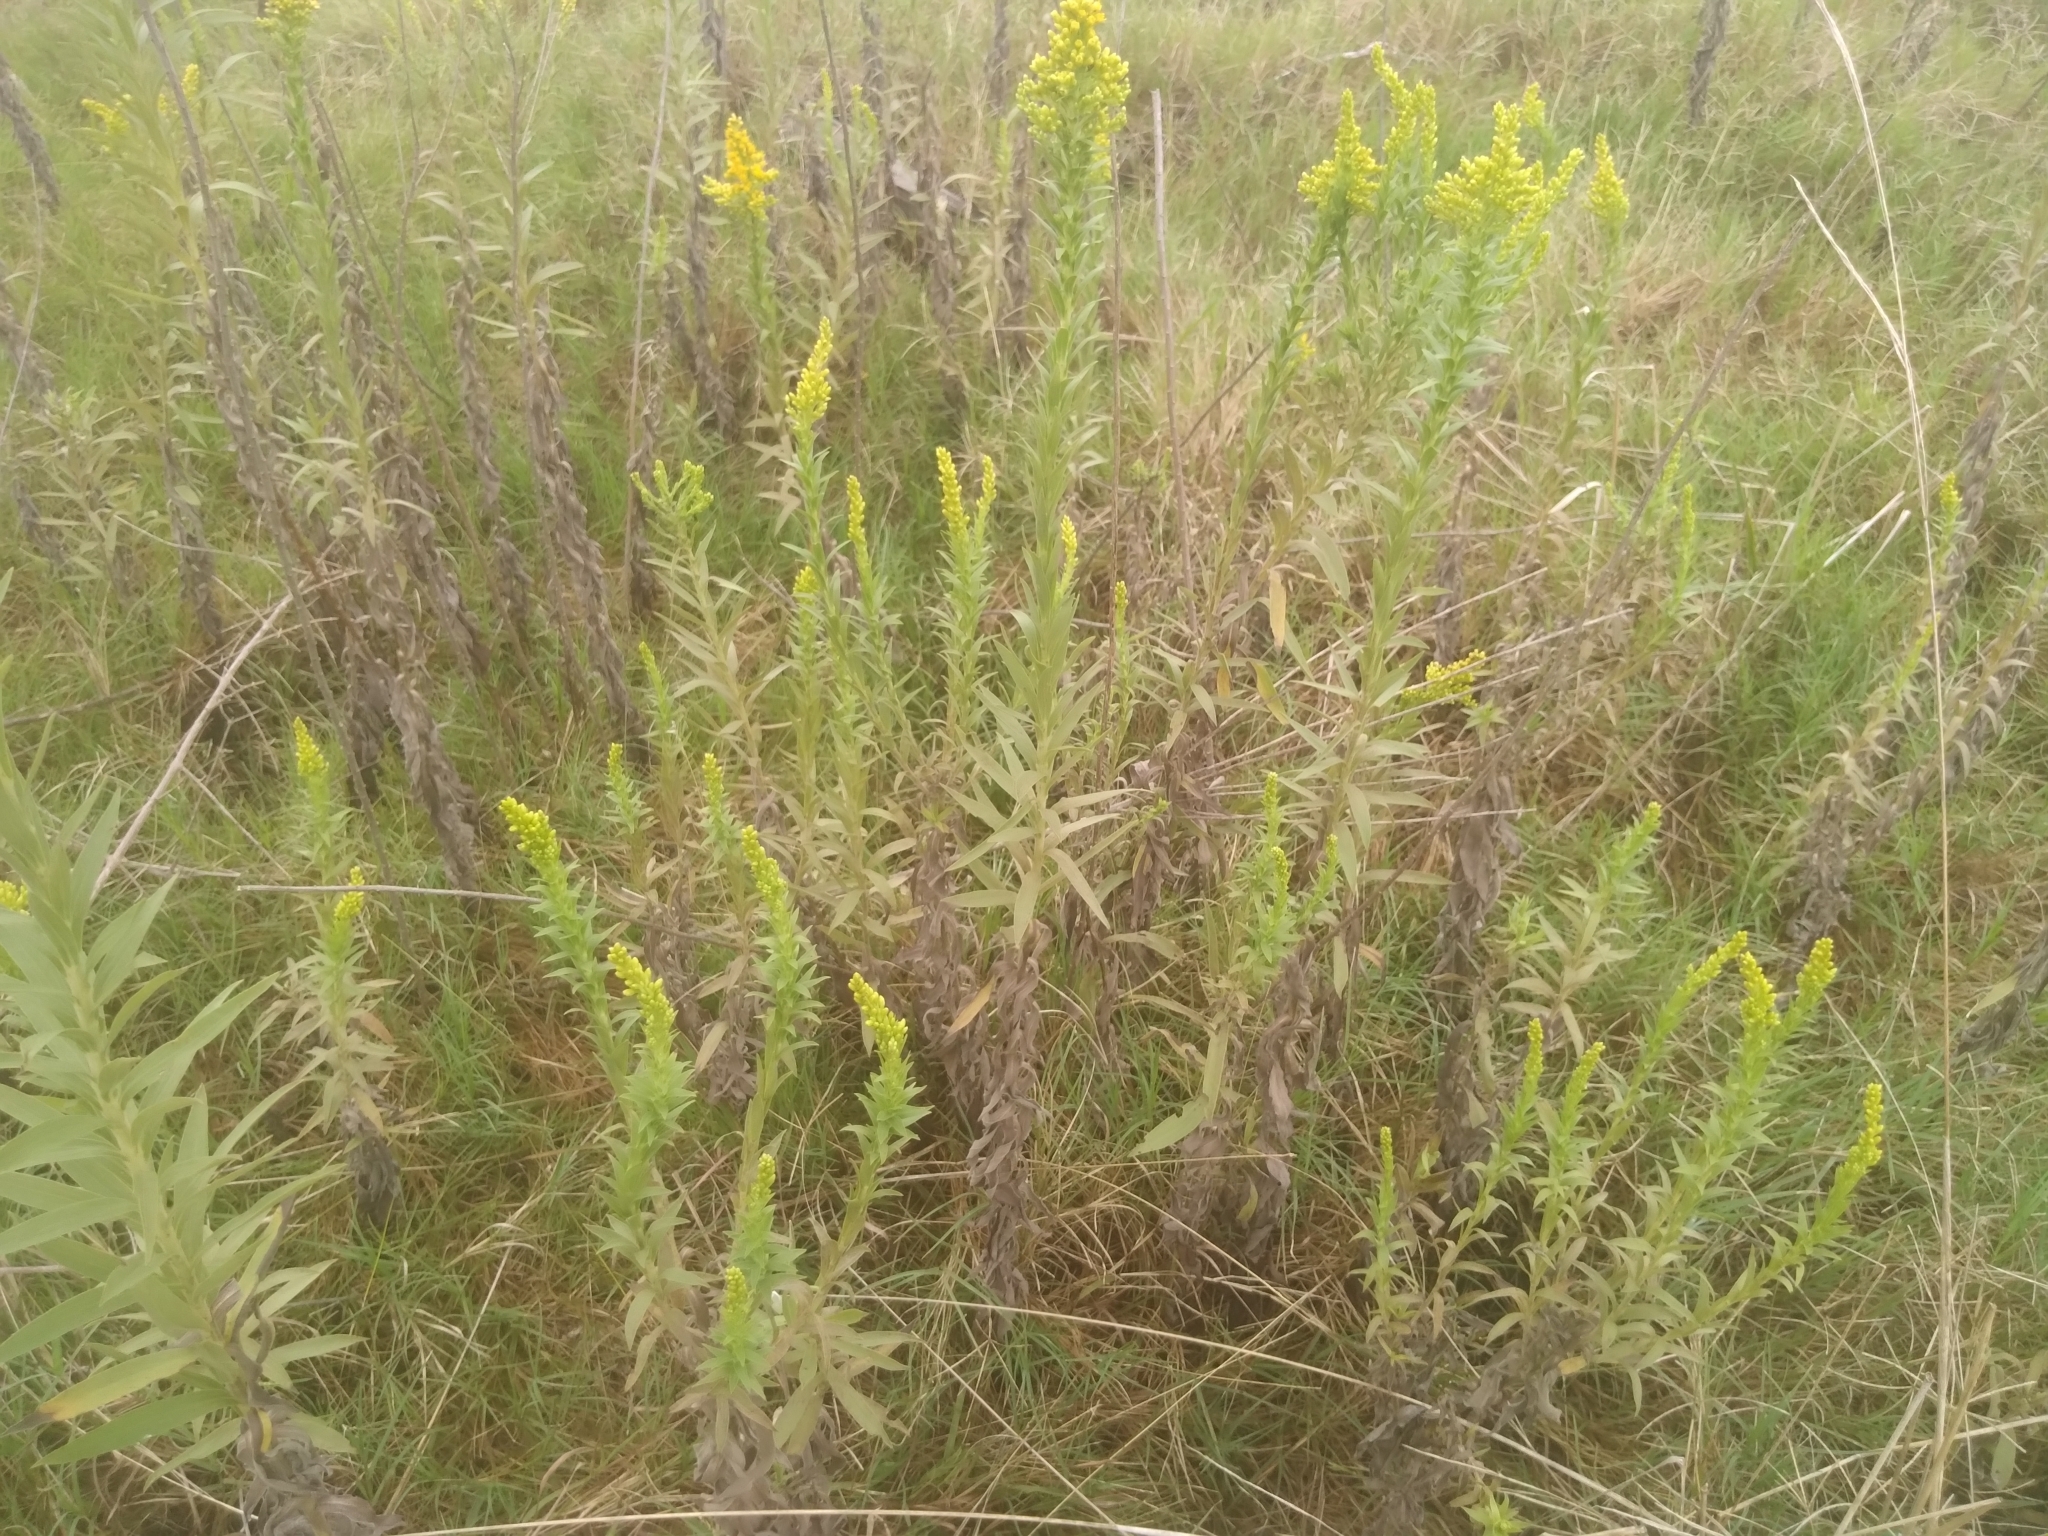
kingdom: Plantae
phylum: Tracheophyta
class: Magnoliopsida
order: Asterales
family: Asteraceae
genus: Solidago
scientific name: Solidago chilensis
